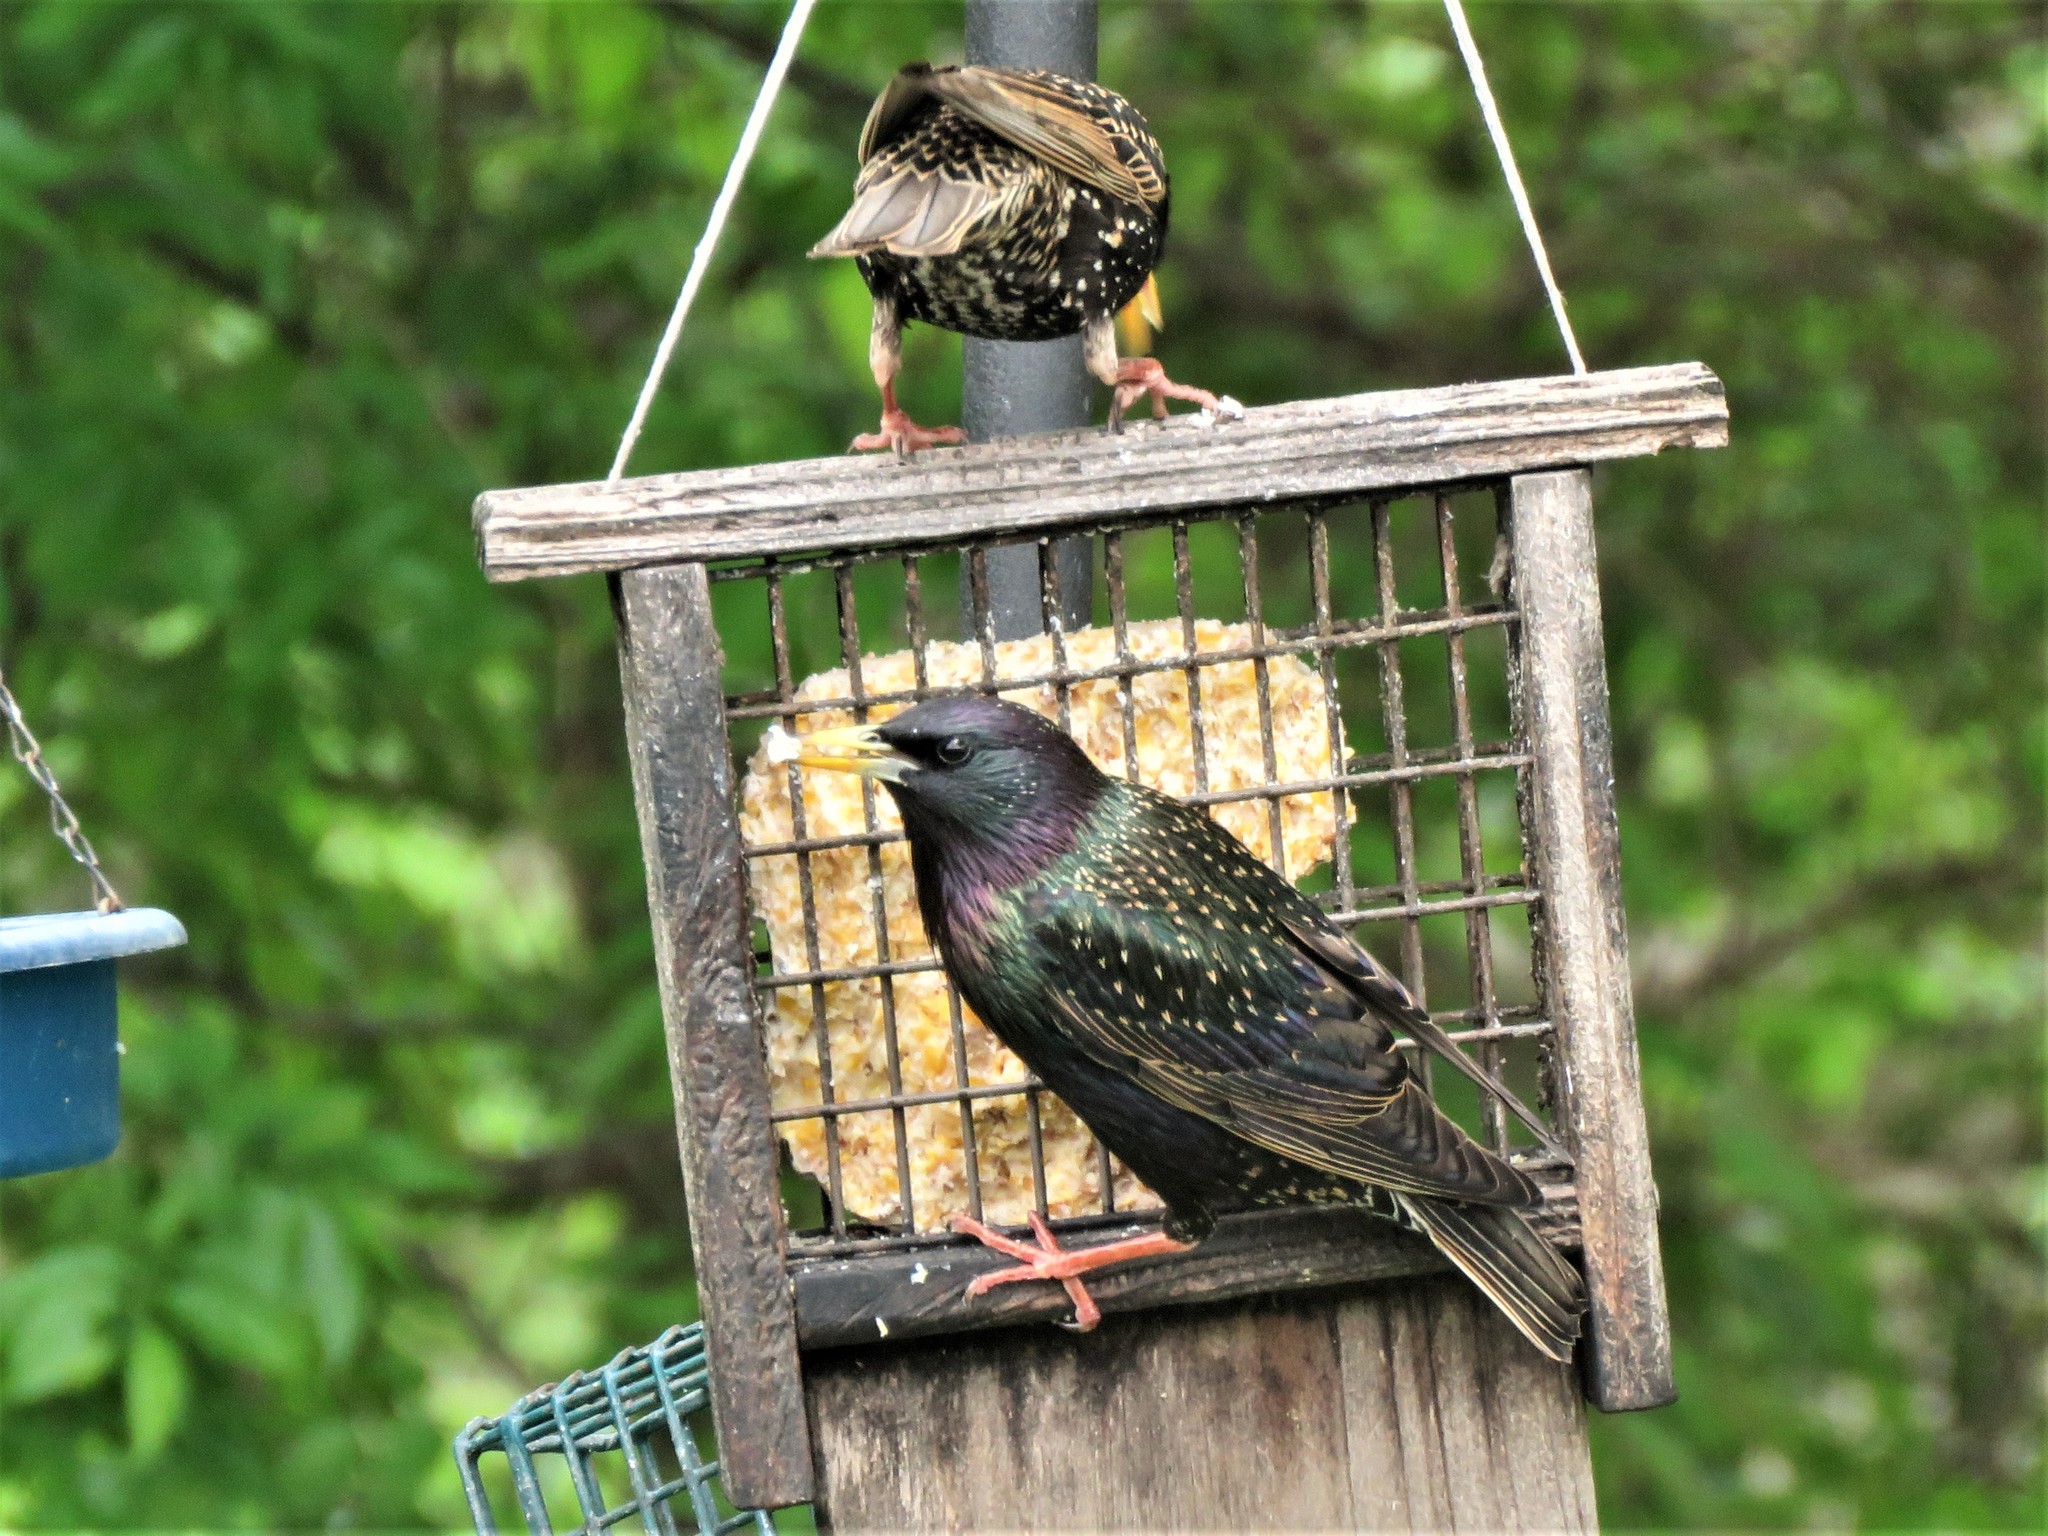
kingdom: Animalia
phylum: Chordata
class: Aves
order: Passeriformes
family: Sturnidae
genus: Sturnus
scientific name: Sturnus vulgaris
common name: Common starling
